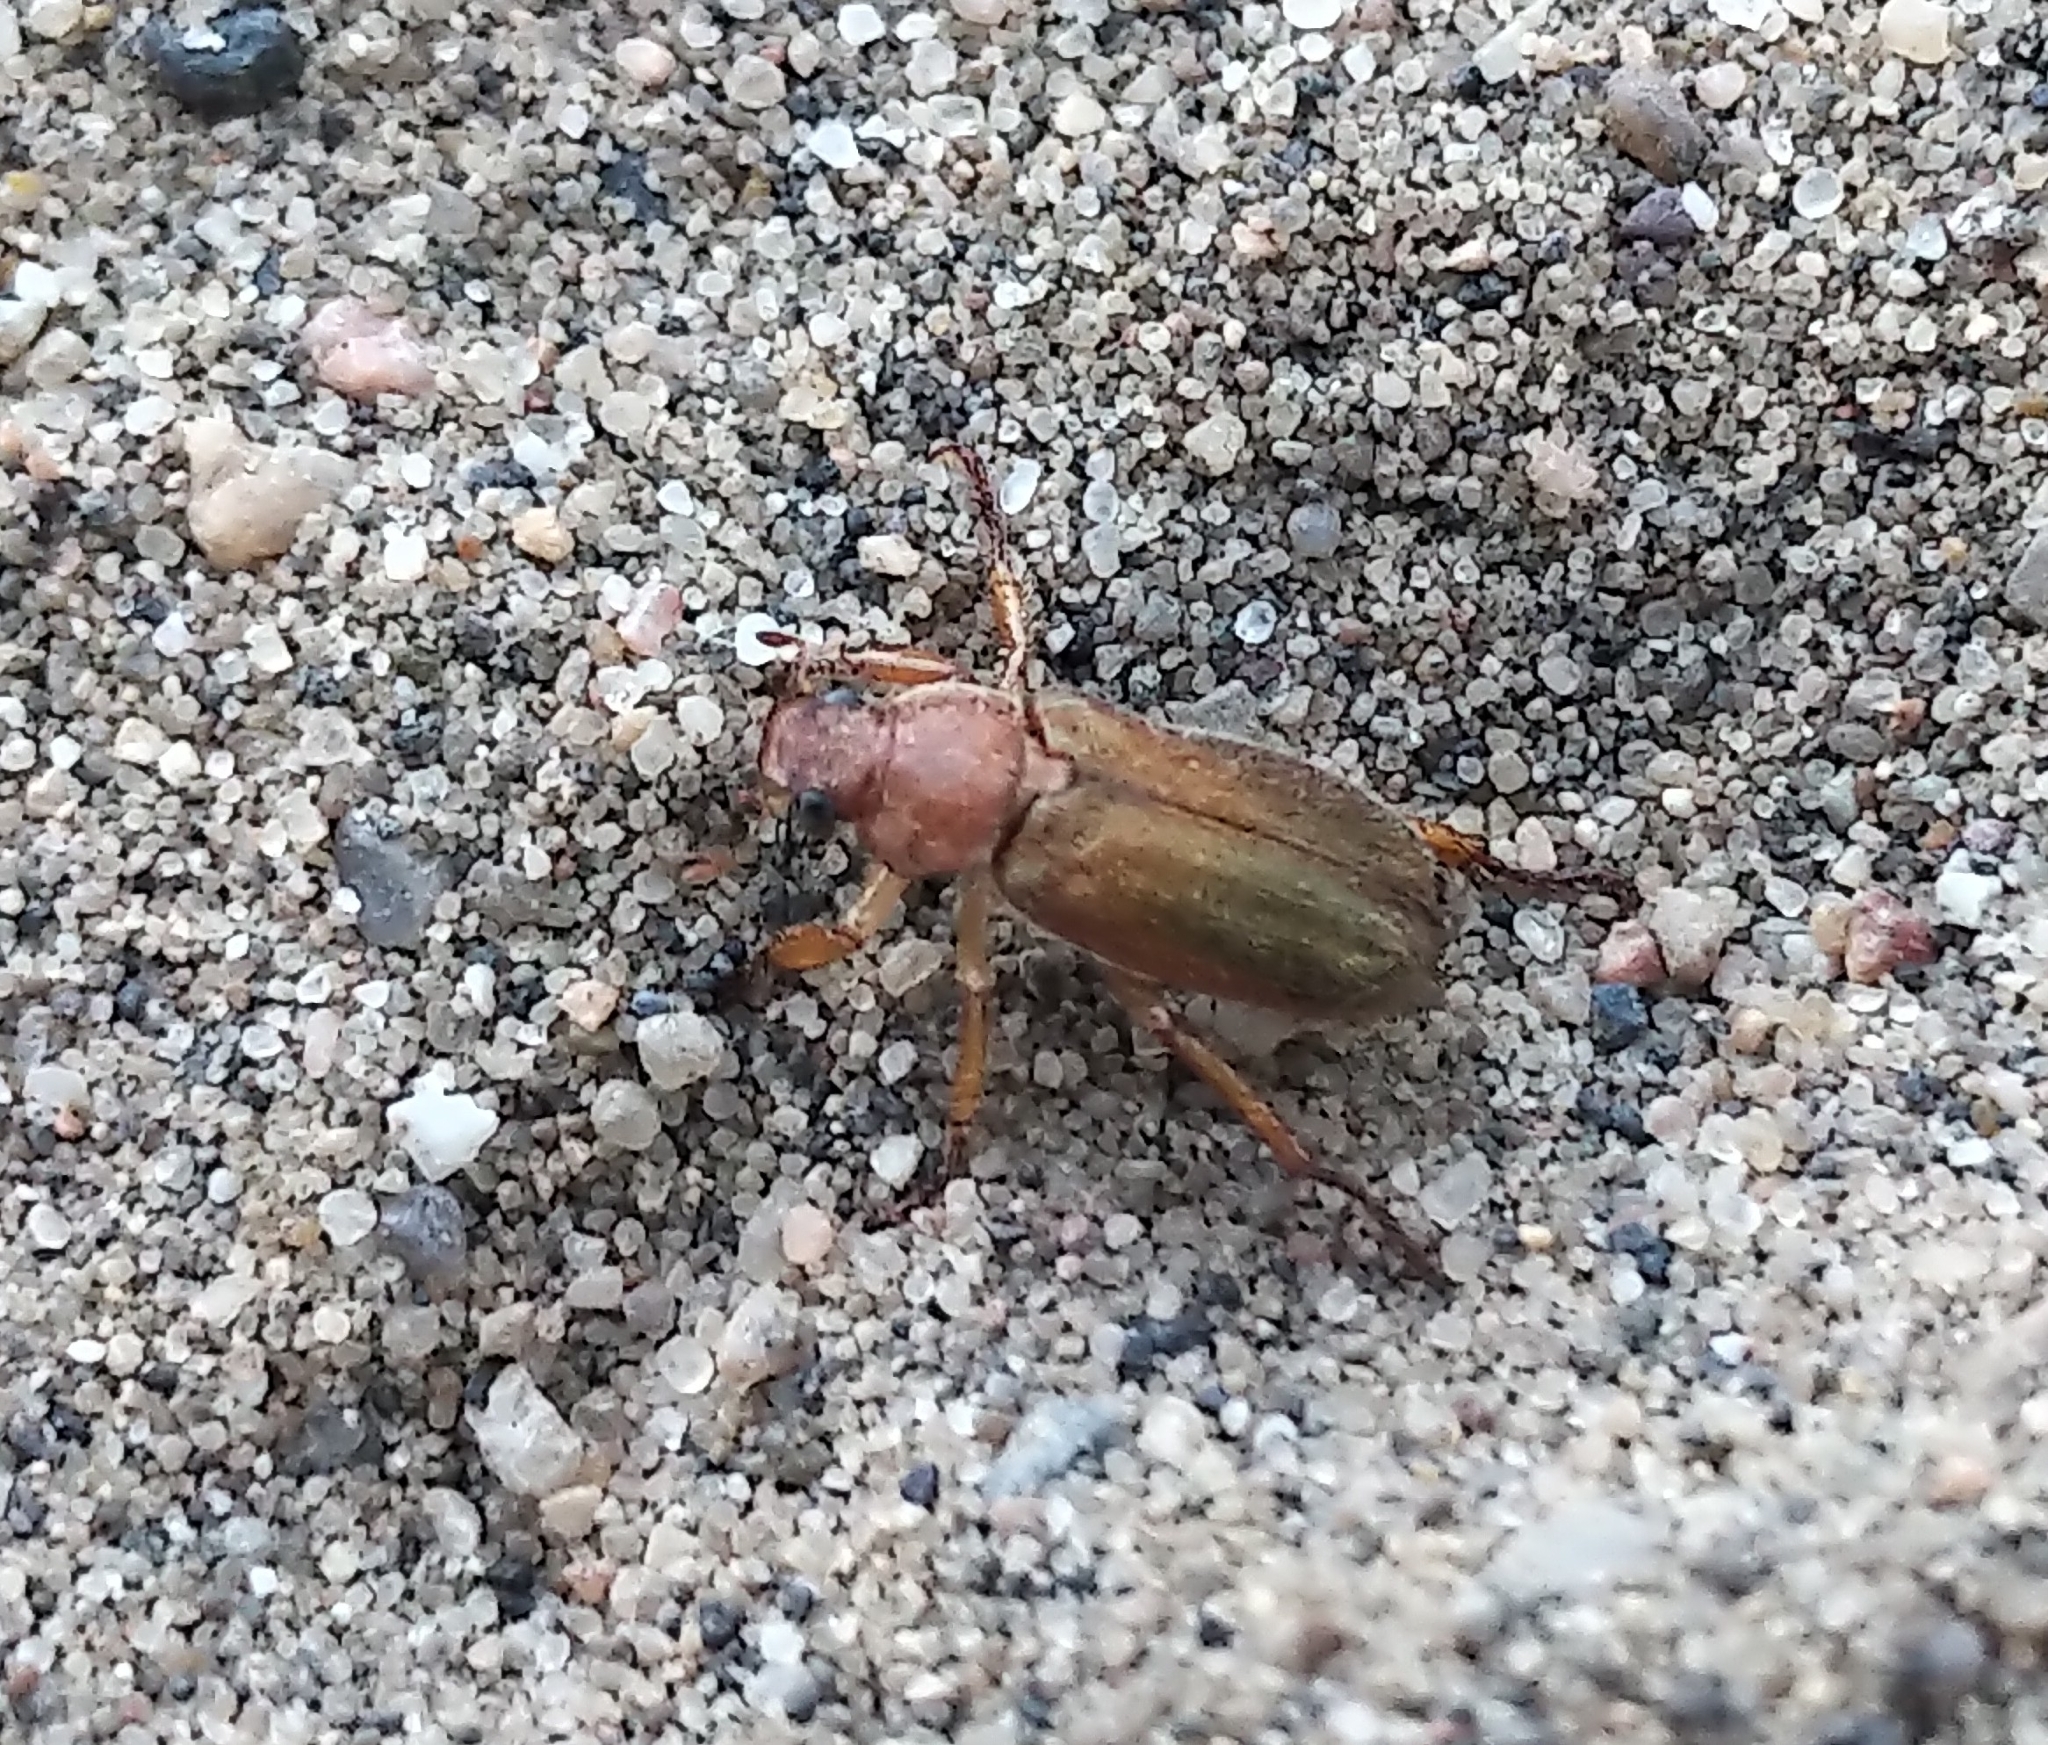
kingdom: Animalia
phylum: Arthropoda
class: Insecta
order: Coleoptera
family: Scarabaeidae
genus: Dichelonyx
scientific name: Dichelonyx kirbyi
